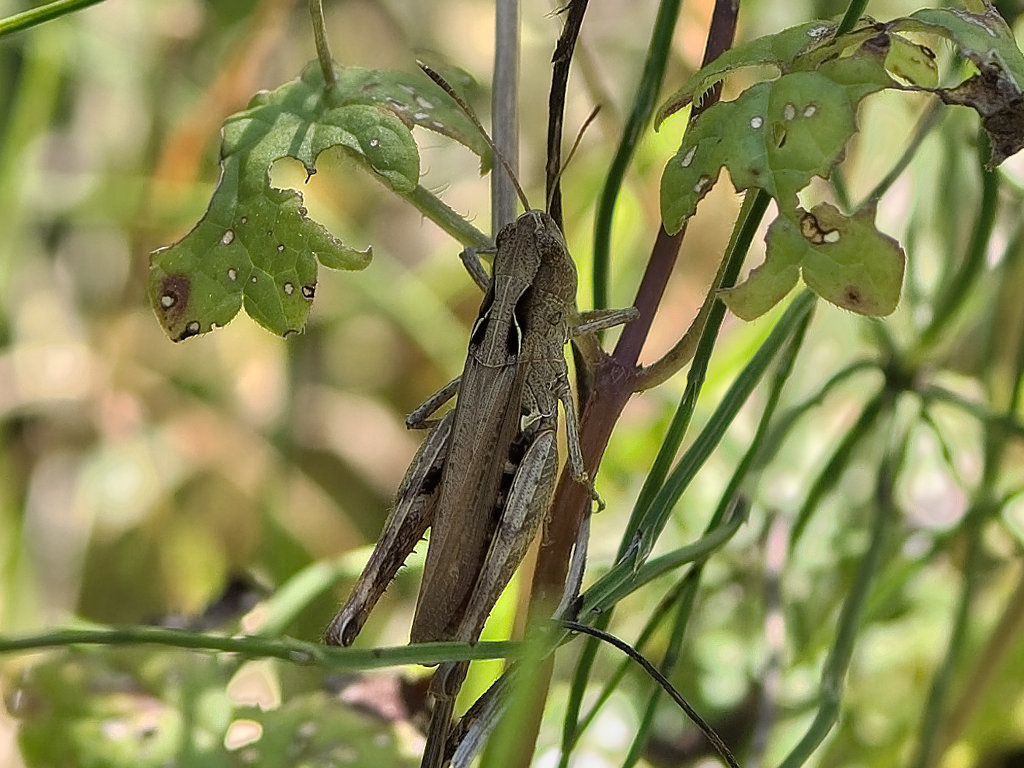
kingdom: Animalia
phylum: Arthropoda
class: Insecta
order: Orthoptera
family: Acrididae
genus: Gomphocerippus
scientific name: Gomphocerippus rufus
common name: Rufous grasshopper
